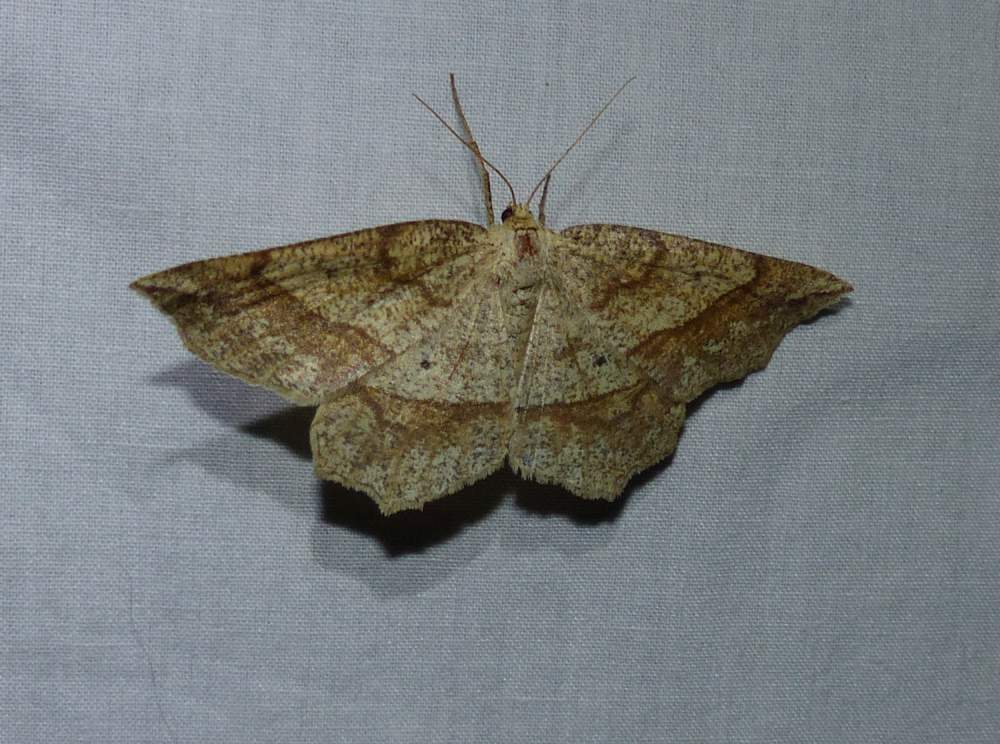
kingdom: Animalia
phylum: Arthropoda
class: Insecta
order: Lepidoptera
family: Geometridae
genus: Euchlaena
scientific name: Euchlaena marginaria
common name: Ochre euchlaena moth
